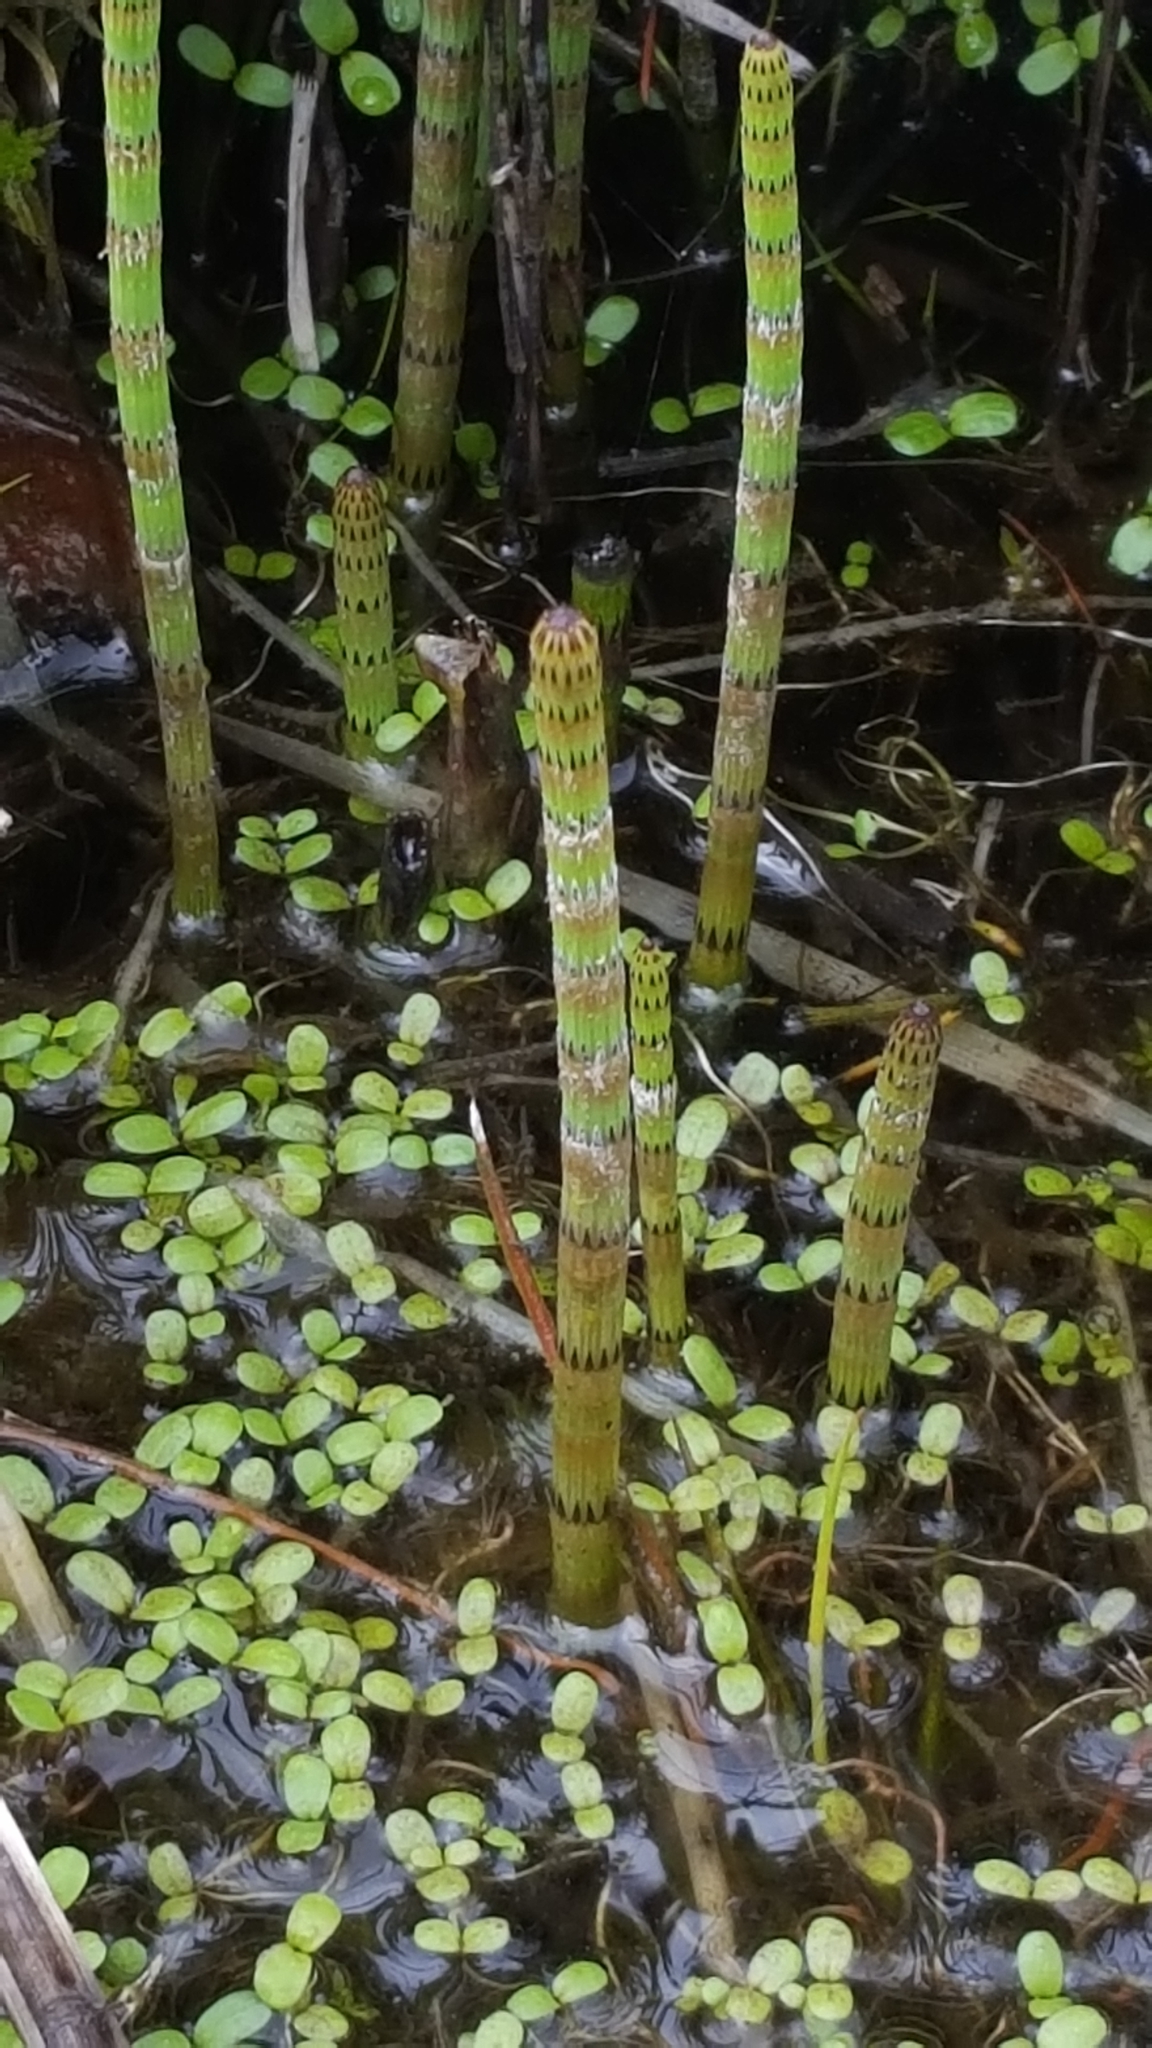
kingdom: Plantae
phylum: Tracheophyta
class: Polypodiopsida
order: Equisetales
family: Equisetaceae
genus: Equisetum
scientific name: Equisetum fluviatile
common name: Water horsetail
